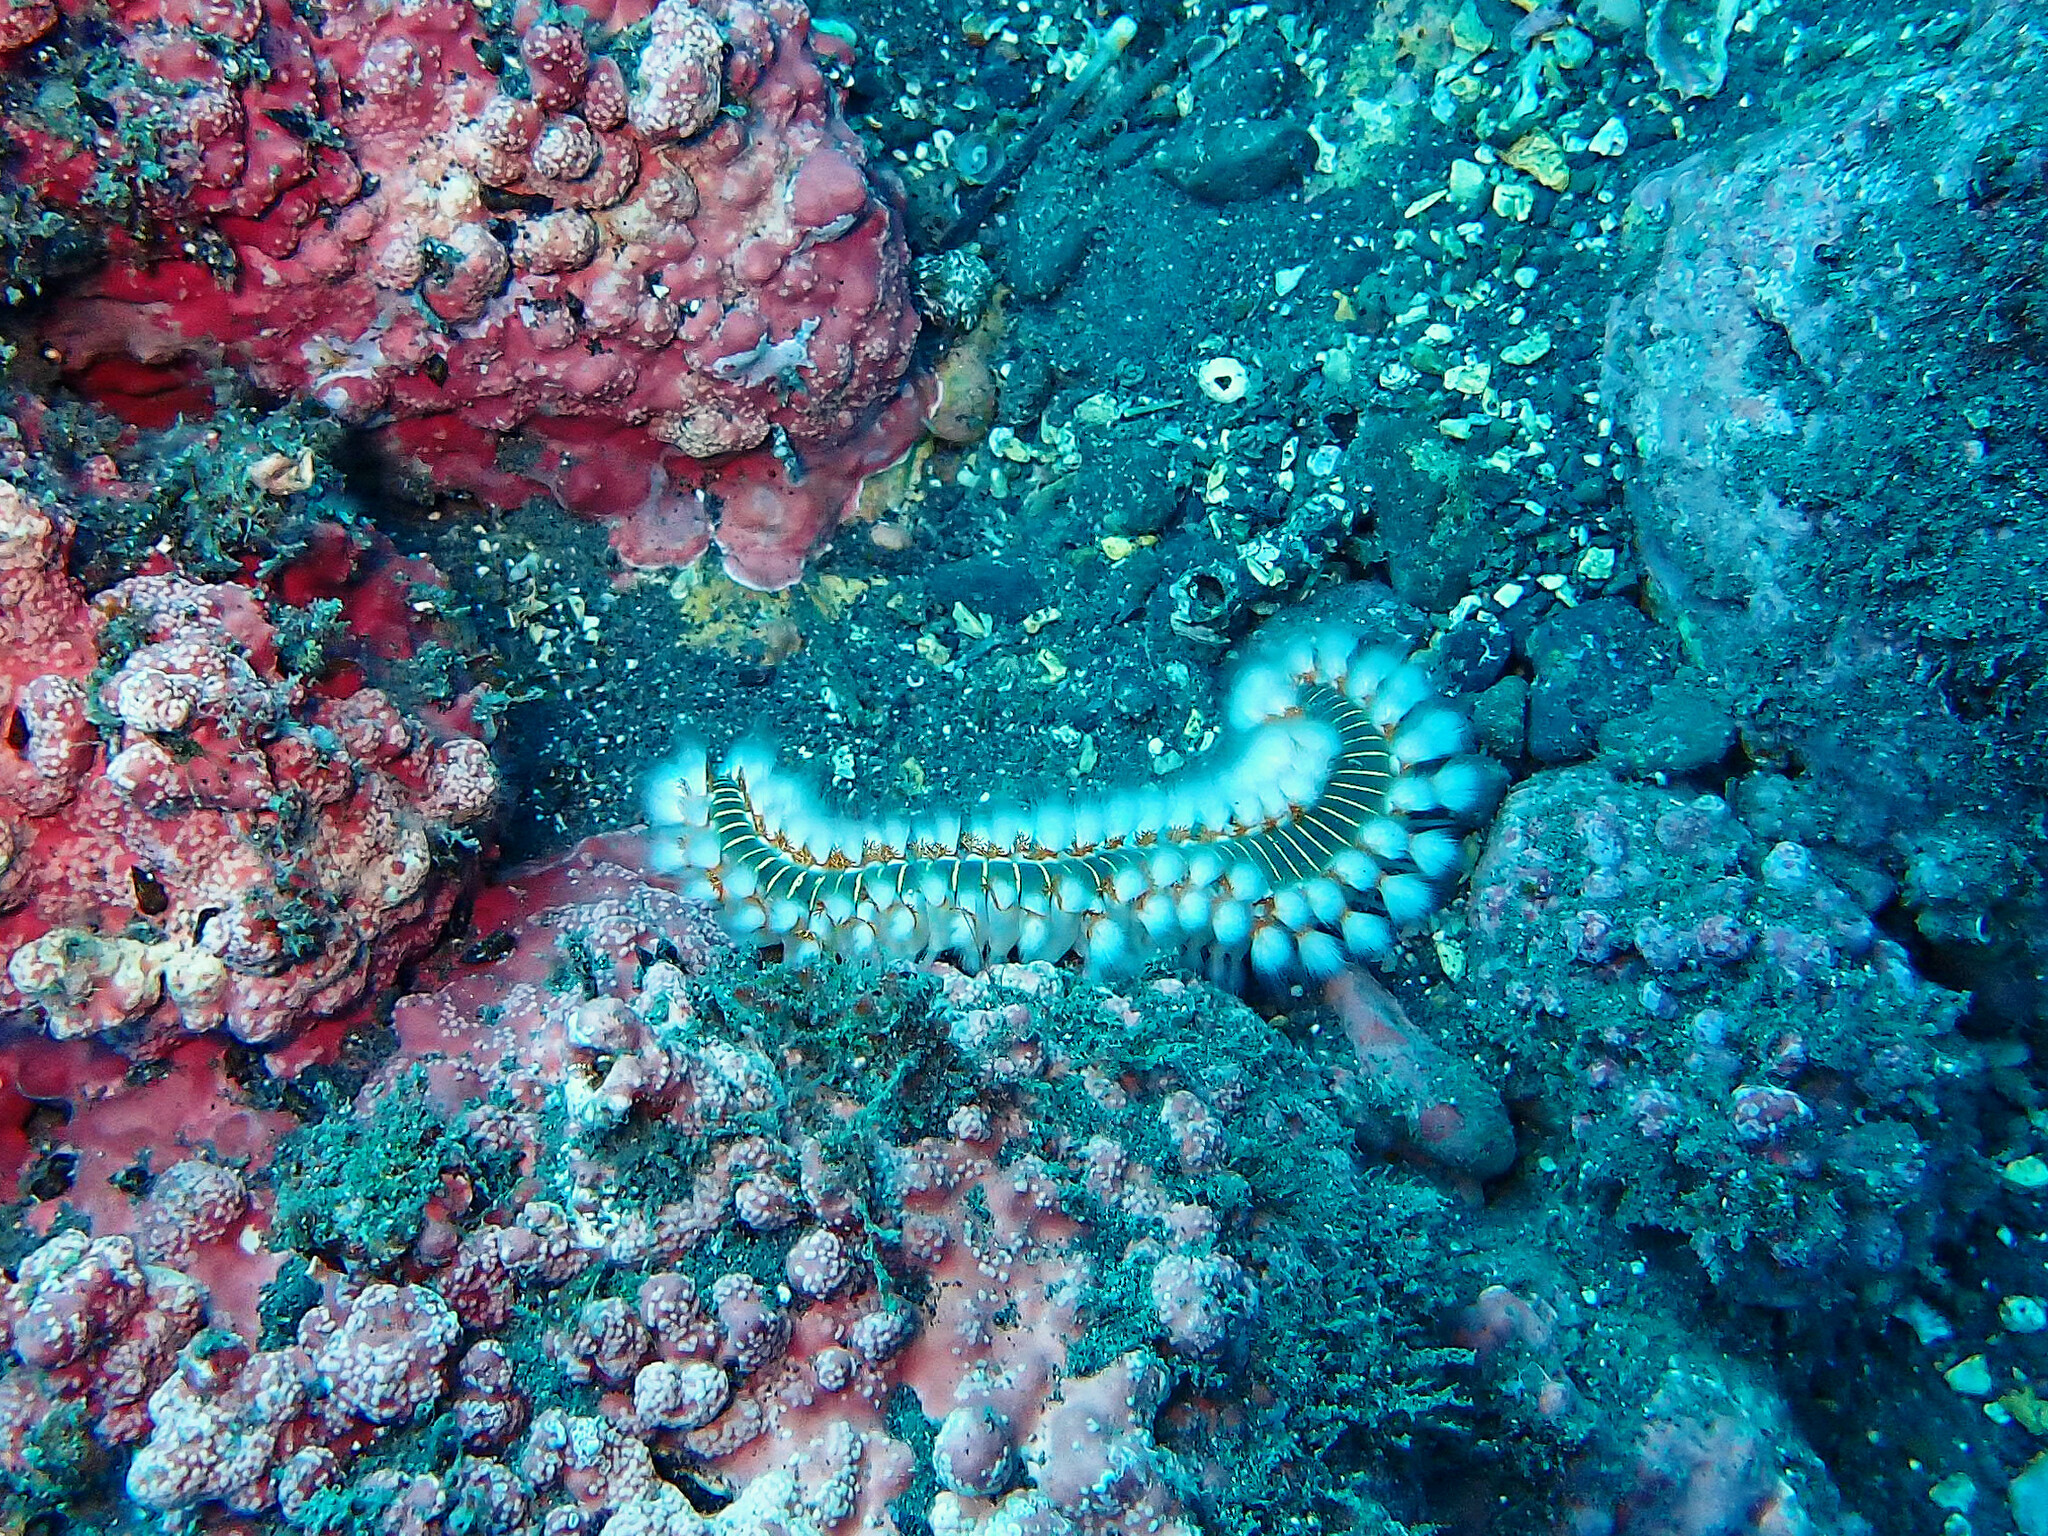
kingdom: Animalia
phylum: Annelida
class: Polychaeta
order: Amphinomida
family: Amphinomidae
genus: Hermodice
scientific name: Hermodice carunculata
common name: Bearded fireworm
